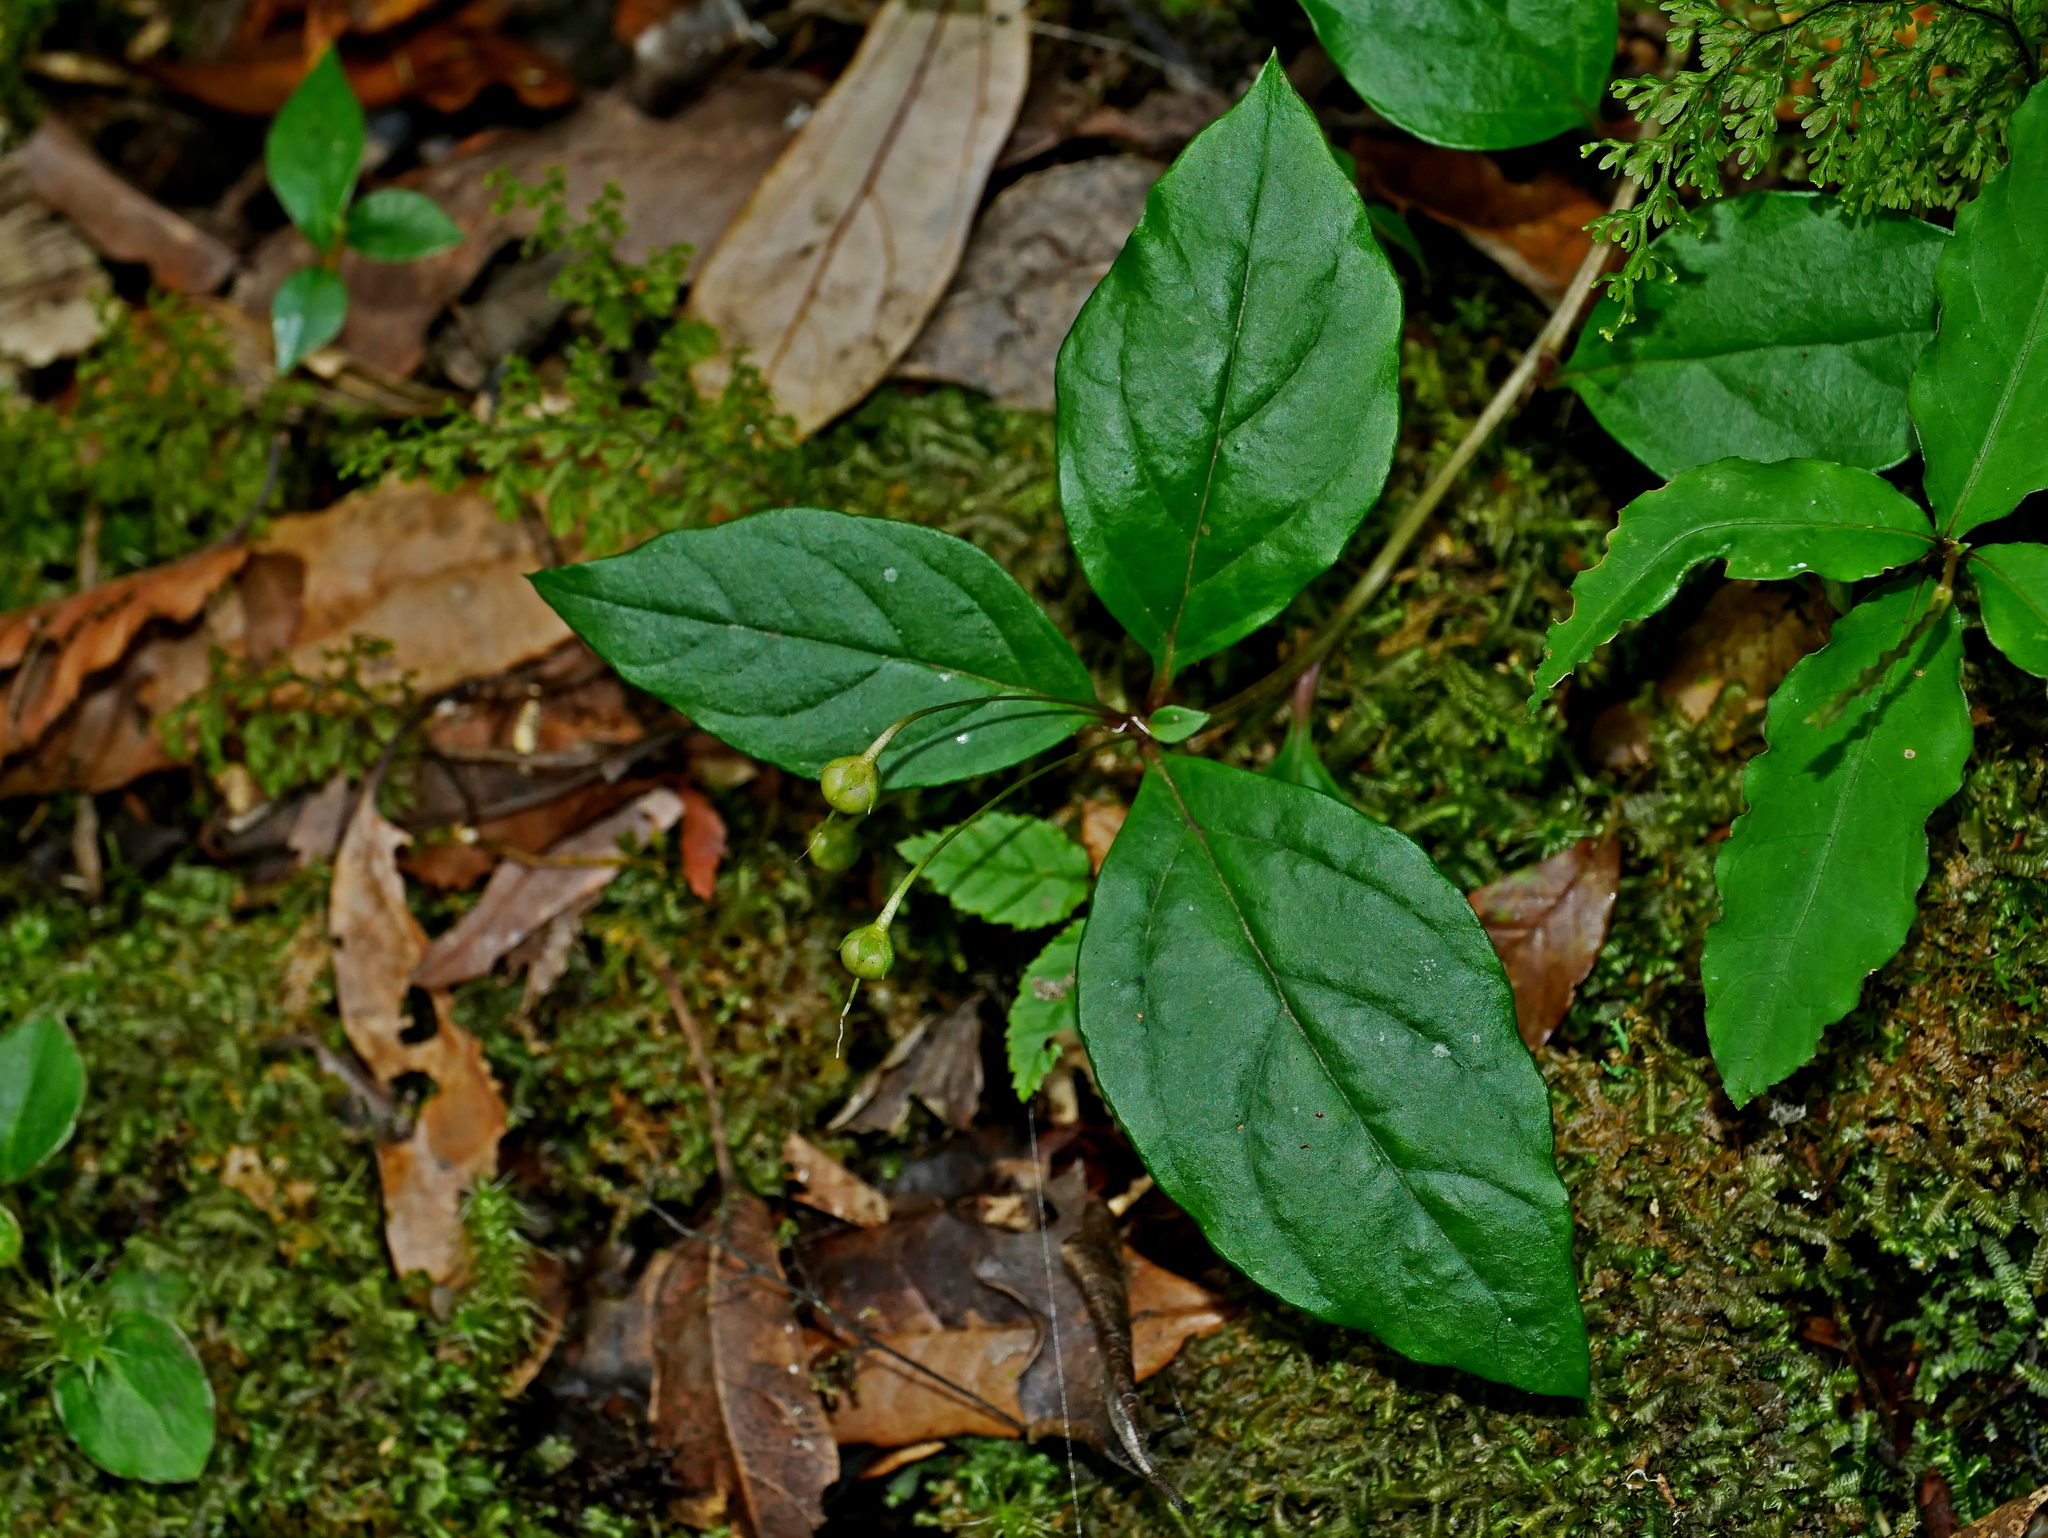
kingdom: Plantae
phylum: Tracheophyta
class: Magnoliopsida
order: Ericales
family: Primulaceae
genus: Lysimachia
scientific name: Lysimachia ardisioides
